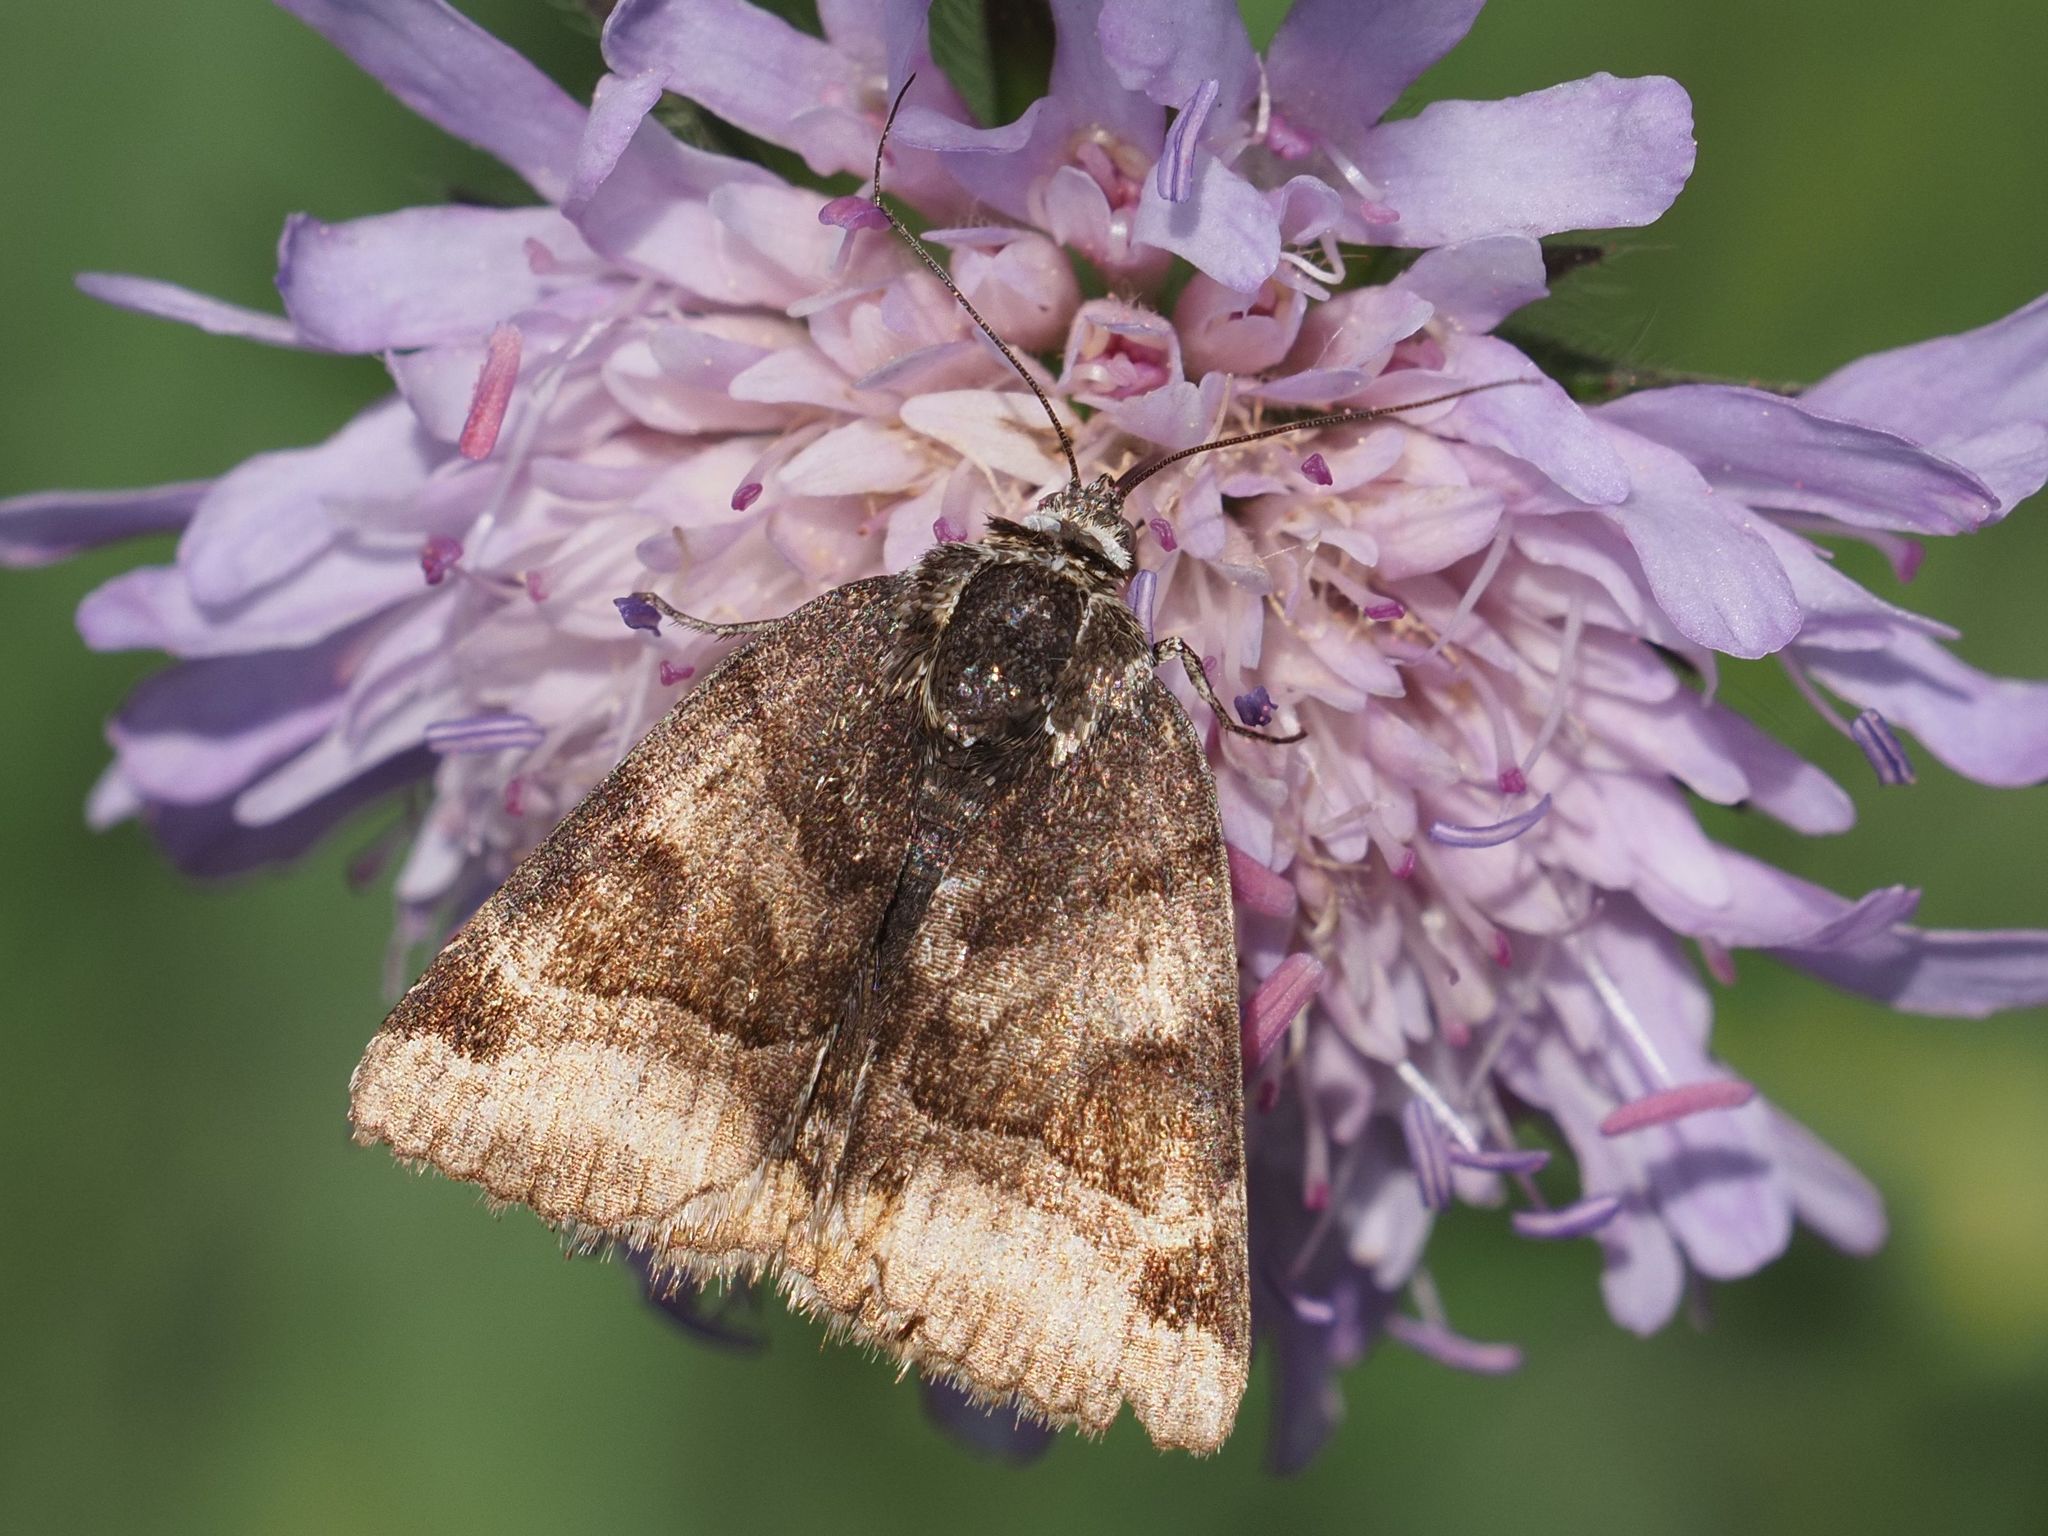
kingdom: Animalia
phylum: Arthropoda
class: Insecta
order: Lepidoptera
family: Erebidae
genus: Euclidia
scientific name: Euclidia glyphica
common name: Burnet companion
